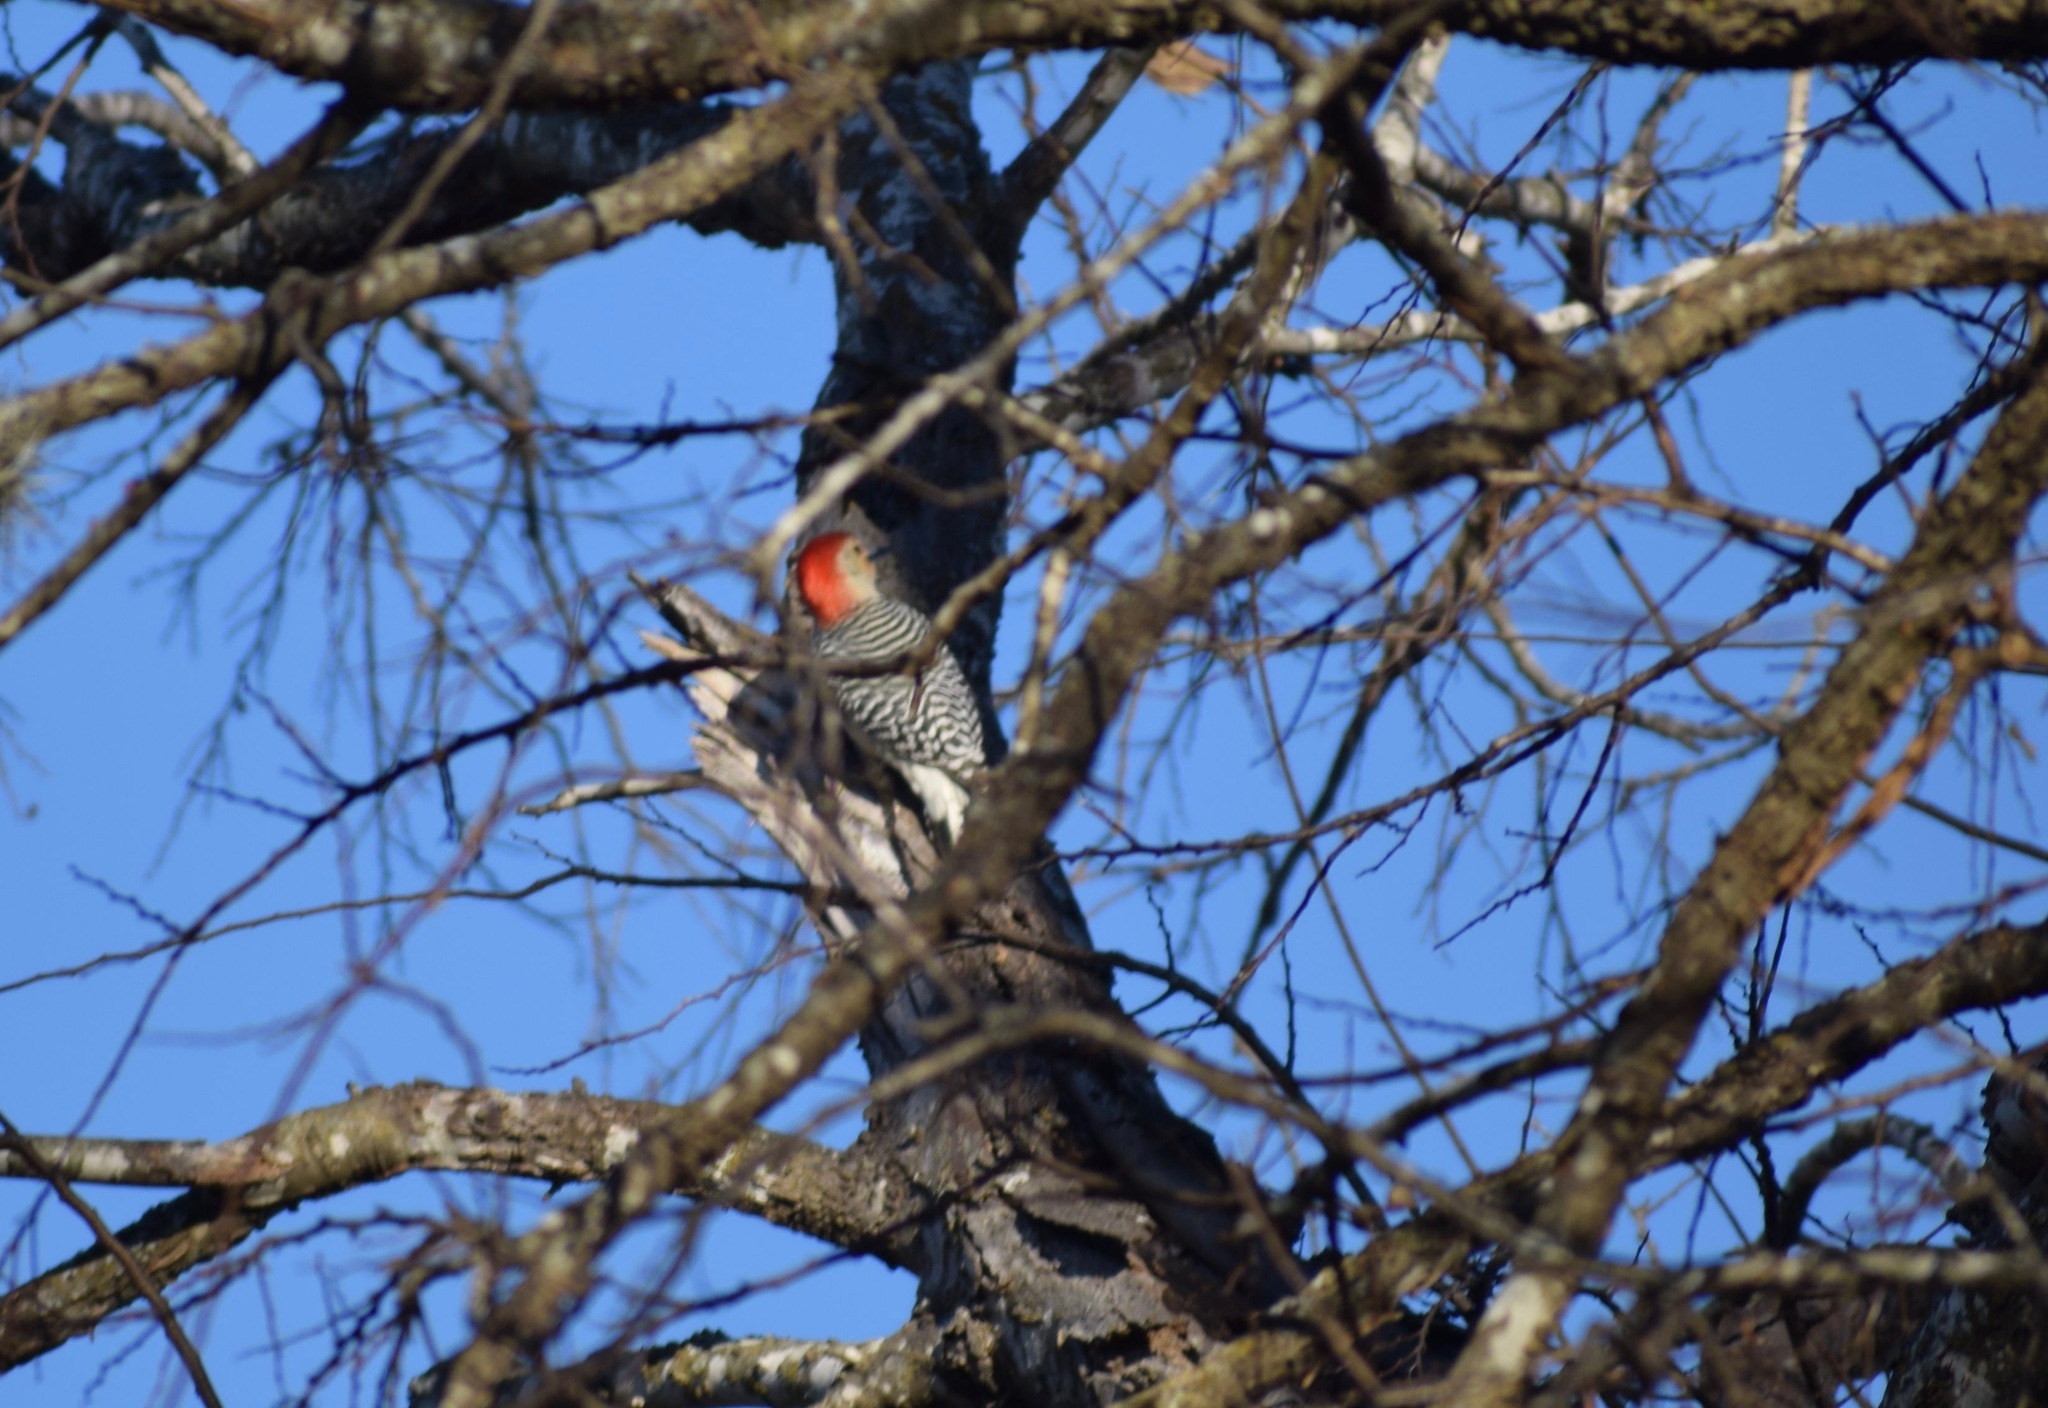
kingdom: Animalia
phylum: Chordata
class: Aves
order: Piciformes
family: Picidae
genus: Melanerpes
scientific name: Melanerpes carolinus
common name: Red-bellied woodpecker
